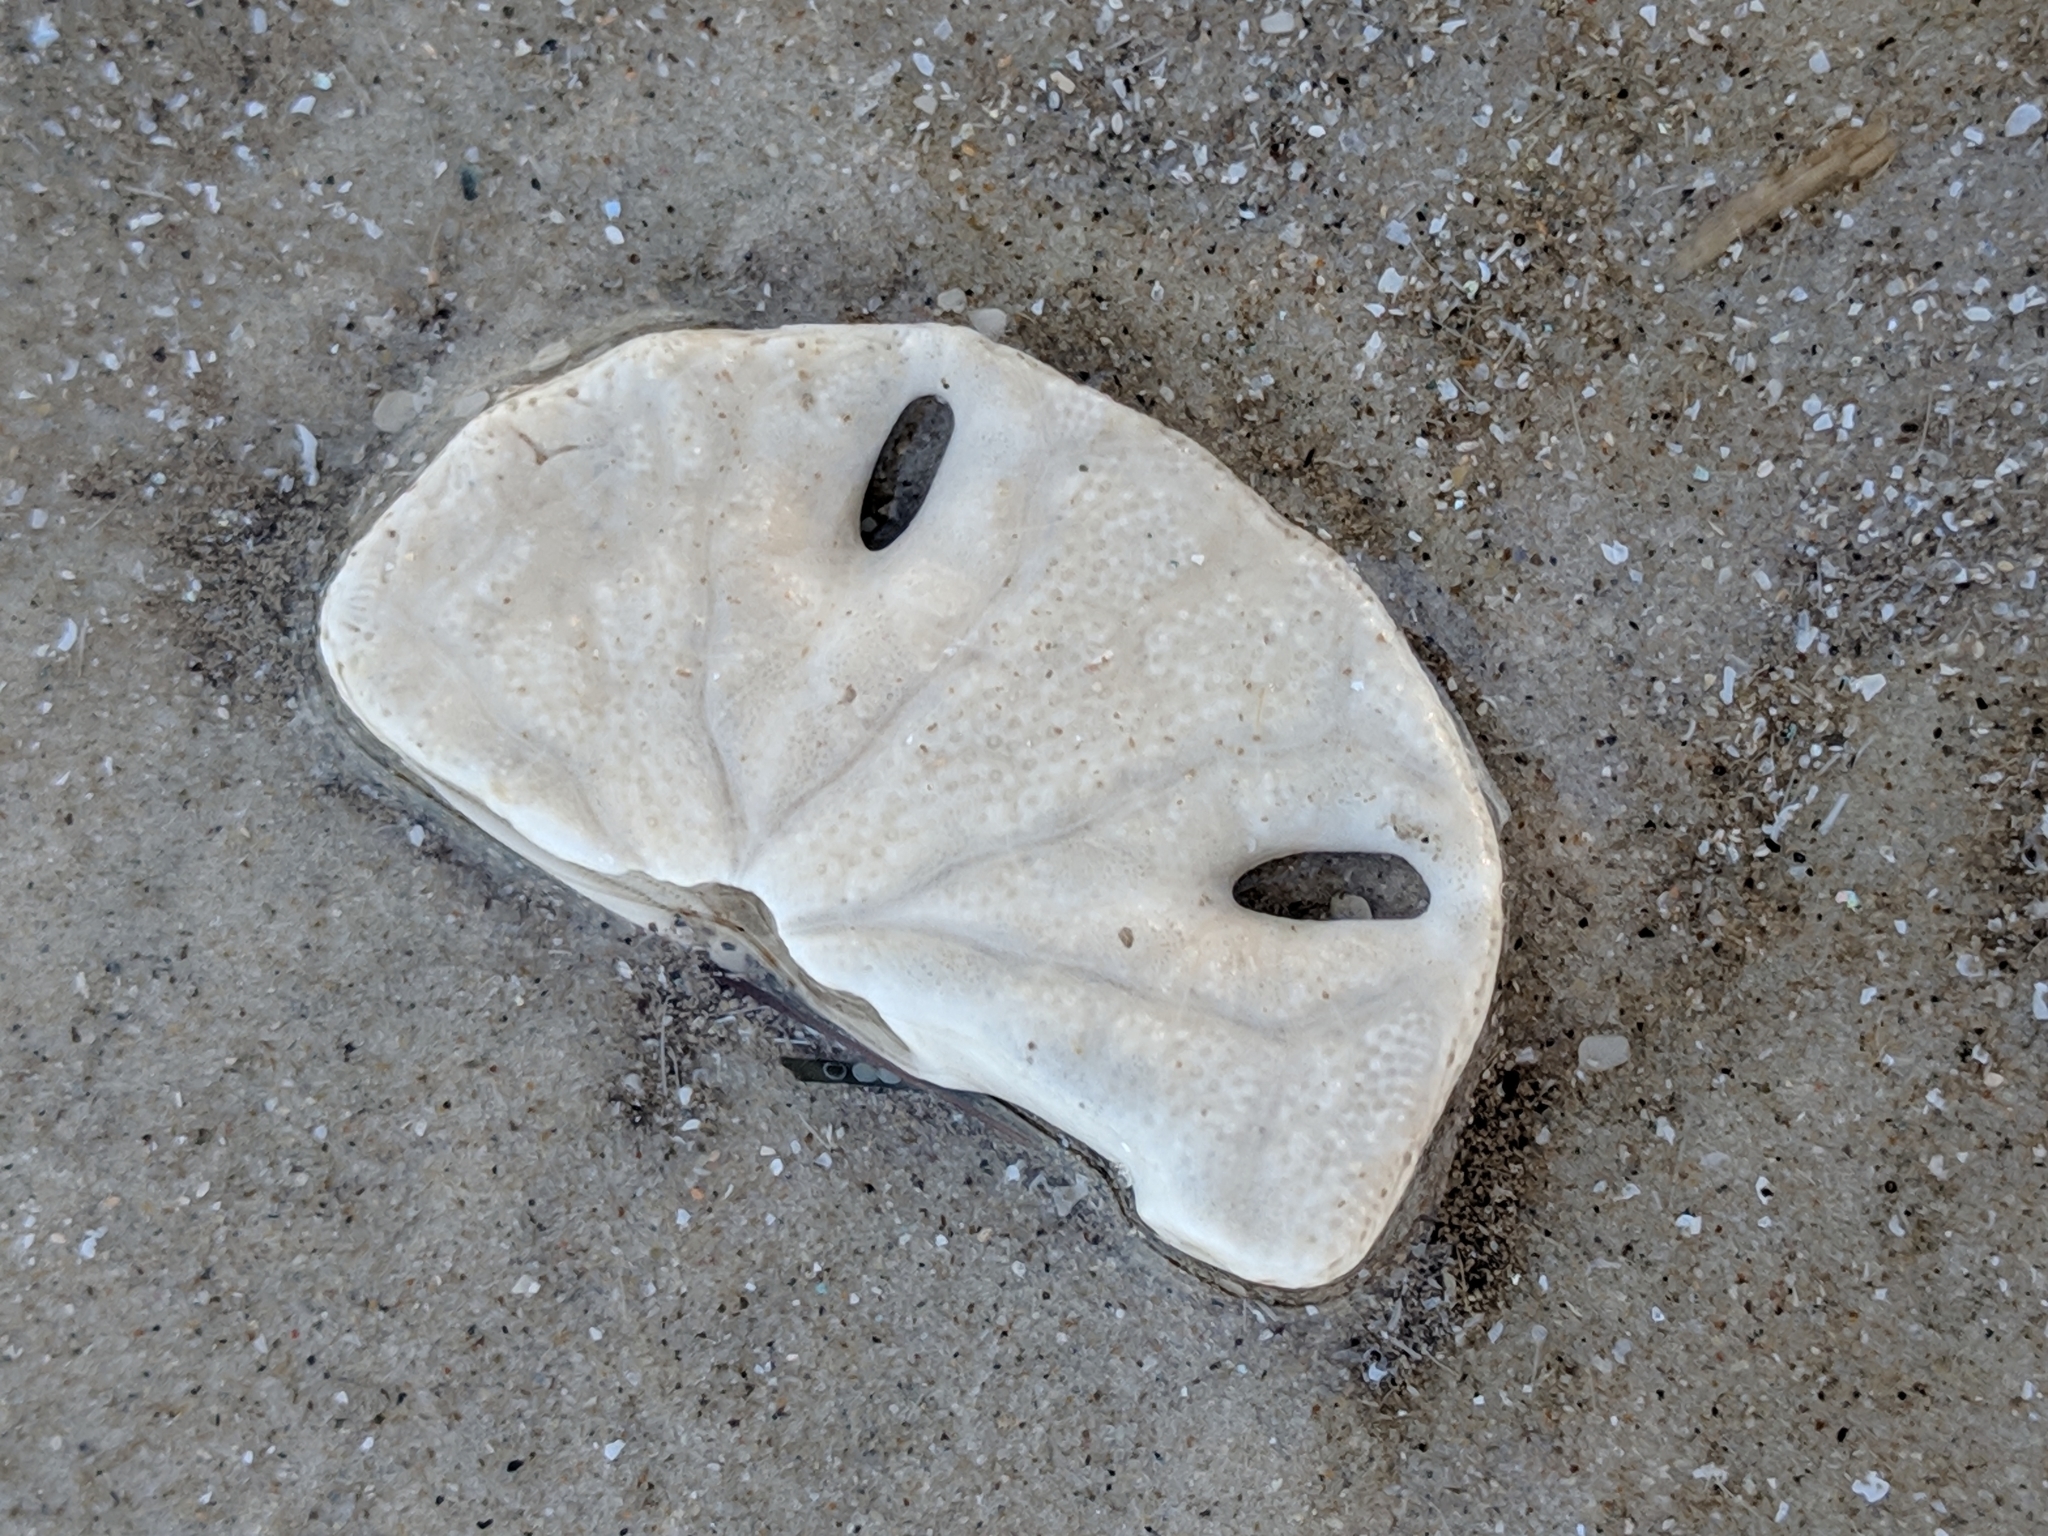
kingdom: Animalia
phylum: Echinodermata
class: Echinoidea
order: Echinolampadacea
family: Mellitidae
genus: Mellita
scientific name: Mellita quinquiesperforata
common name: Sand dollar
